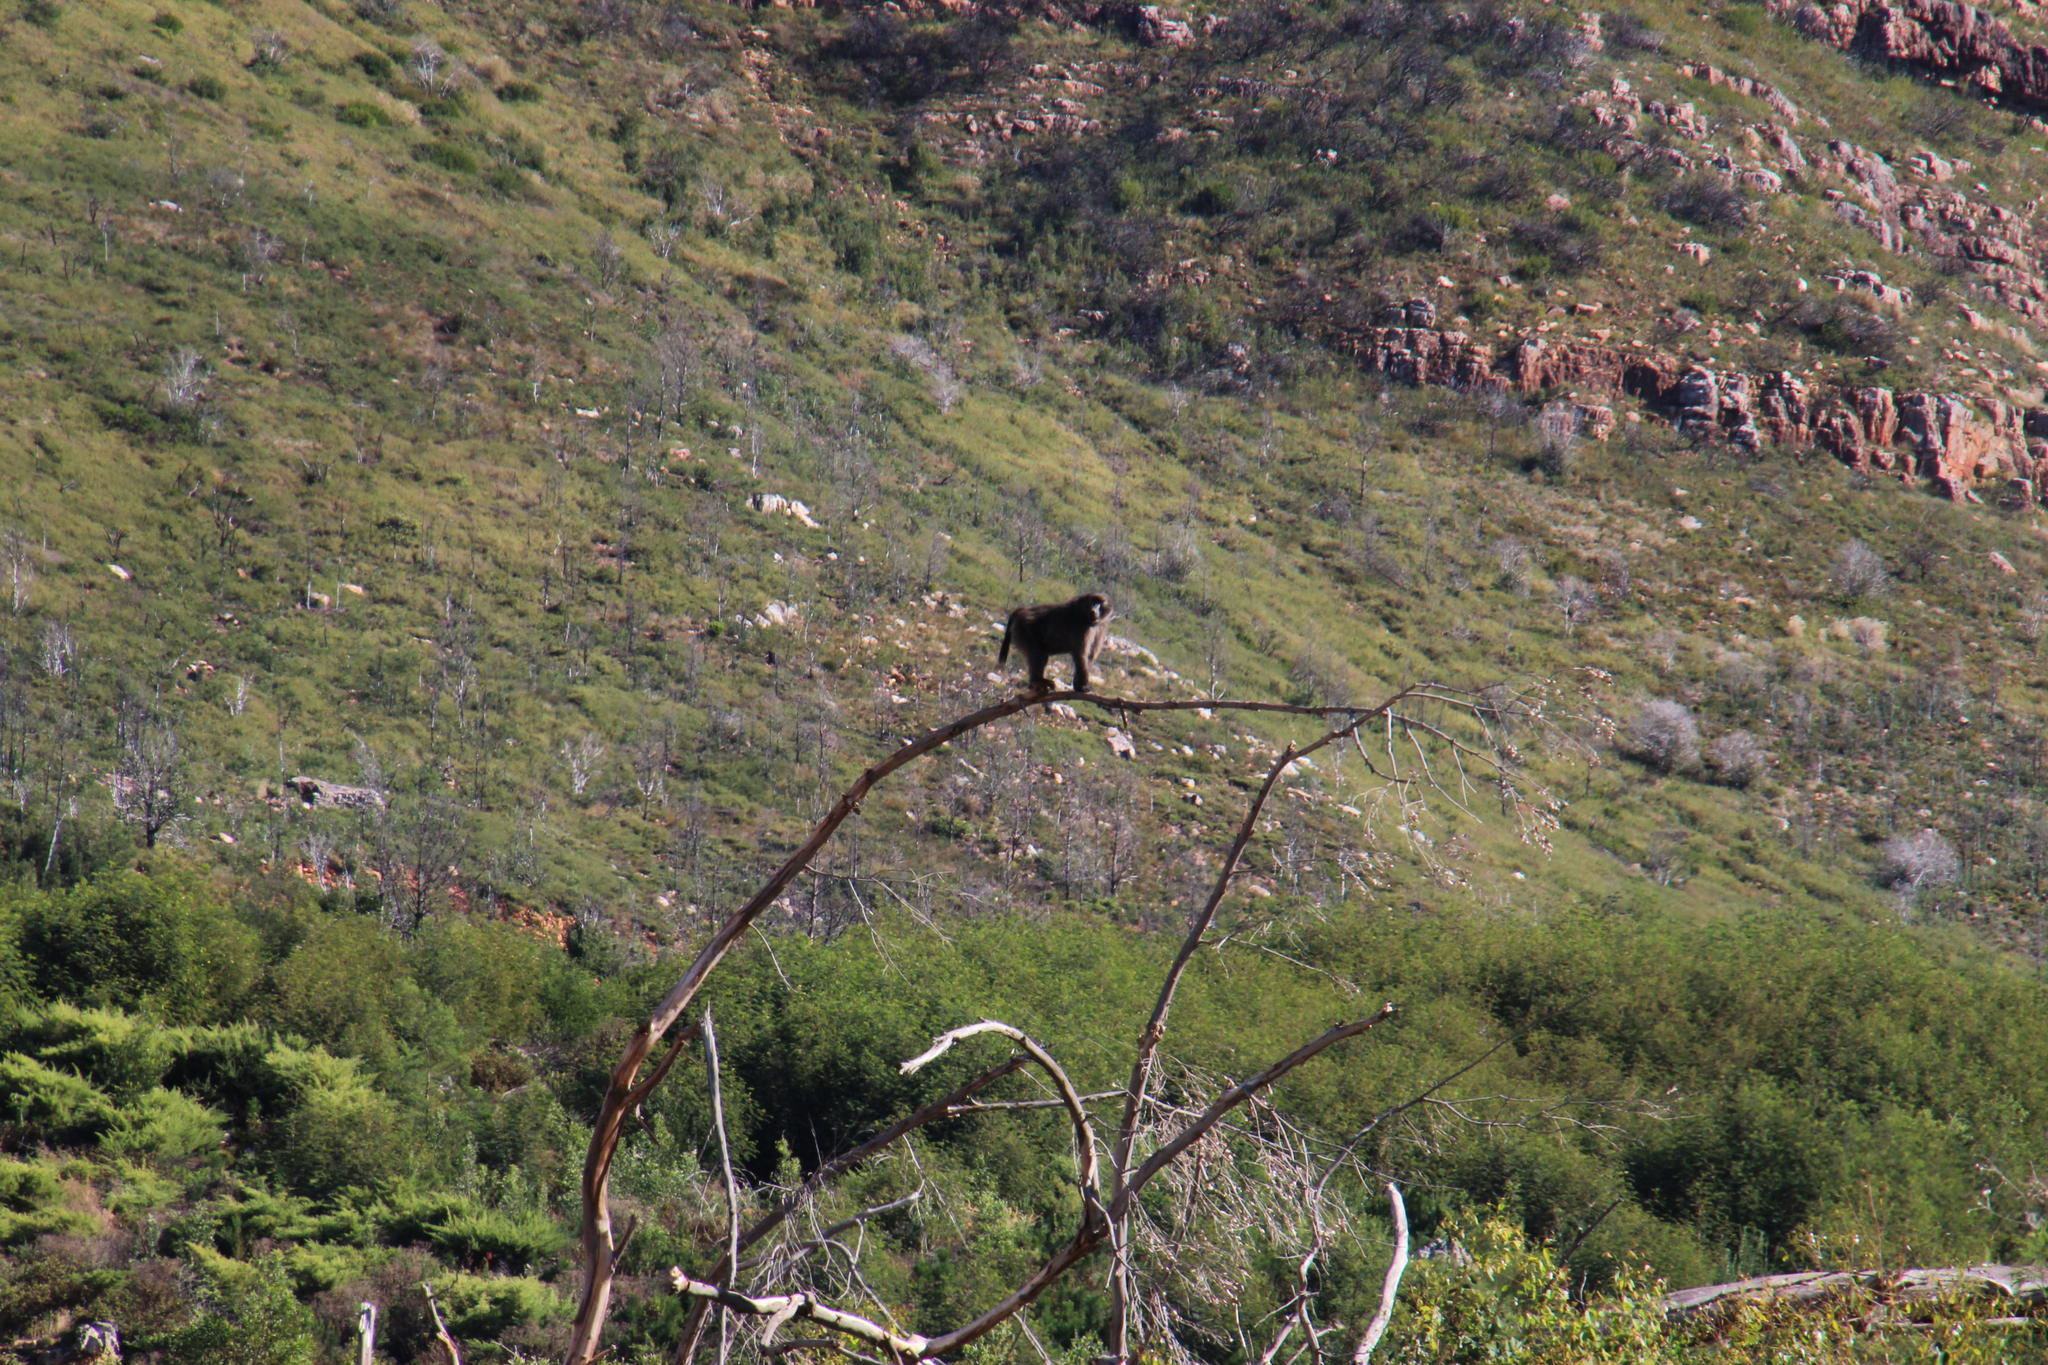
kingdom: Animalia
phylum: Chordata
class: Mammalia
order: Primates
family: Cercopithecidae
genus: Papio
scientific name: Papio ursinus
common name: Chacma baboon
